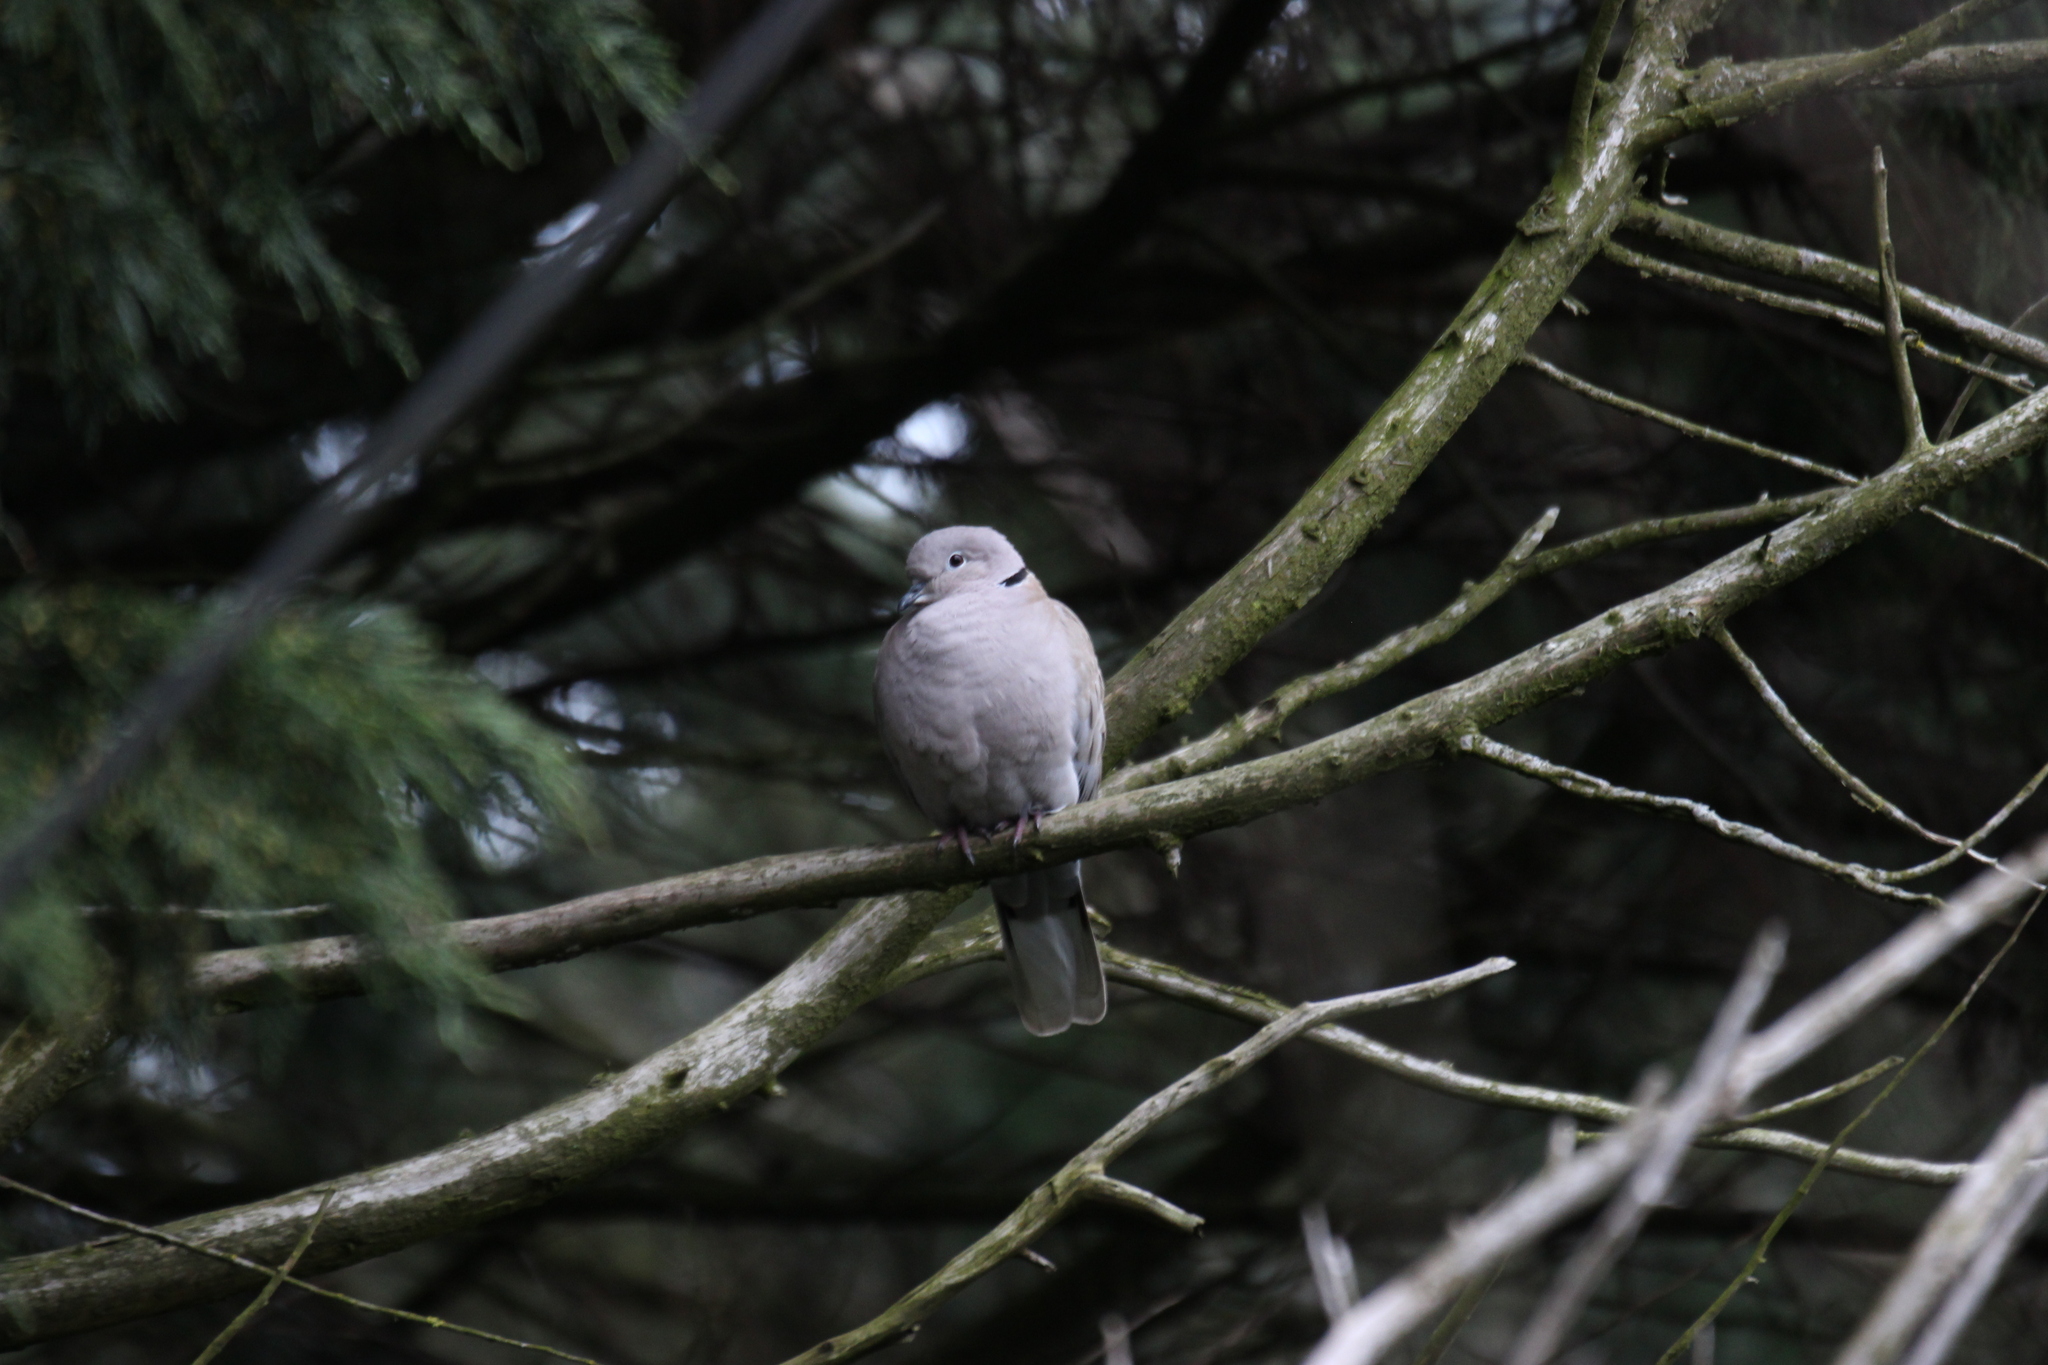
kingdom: Animalia
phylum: Chordata
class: Aves
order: Columbiformes
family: Columbidae
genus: Streptopelia
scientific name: Streptopelia decaocto
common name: Eurasian collared dove
